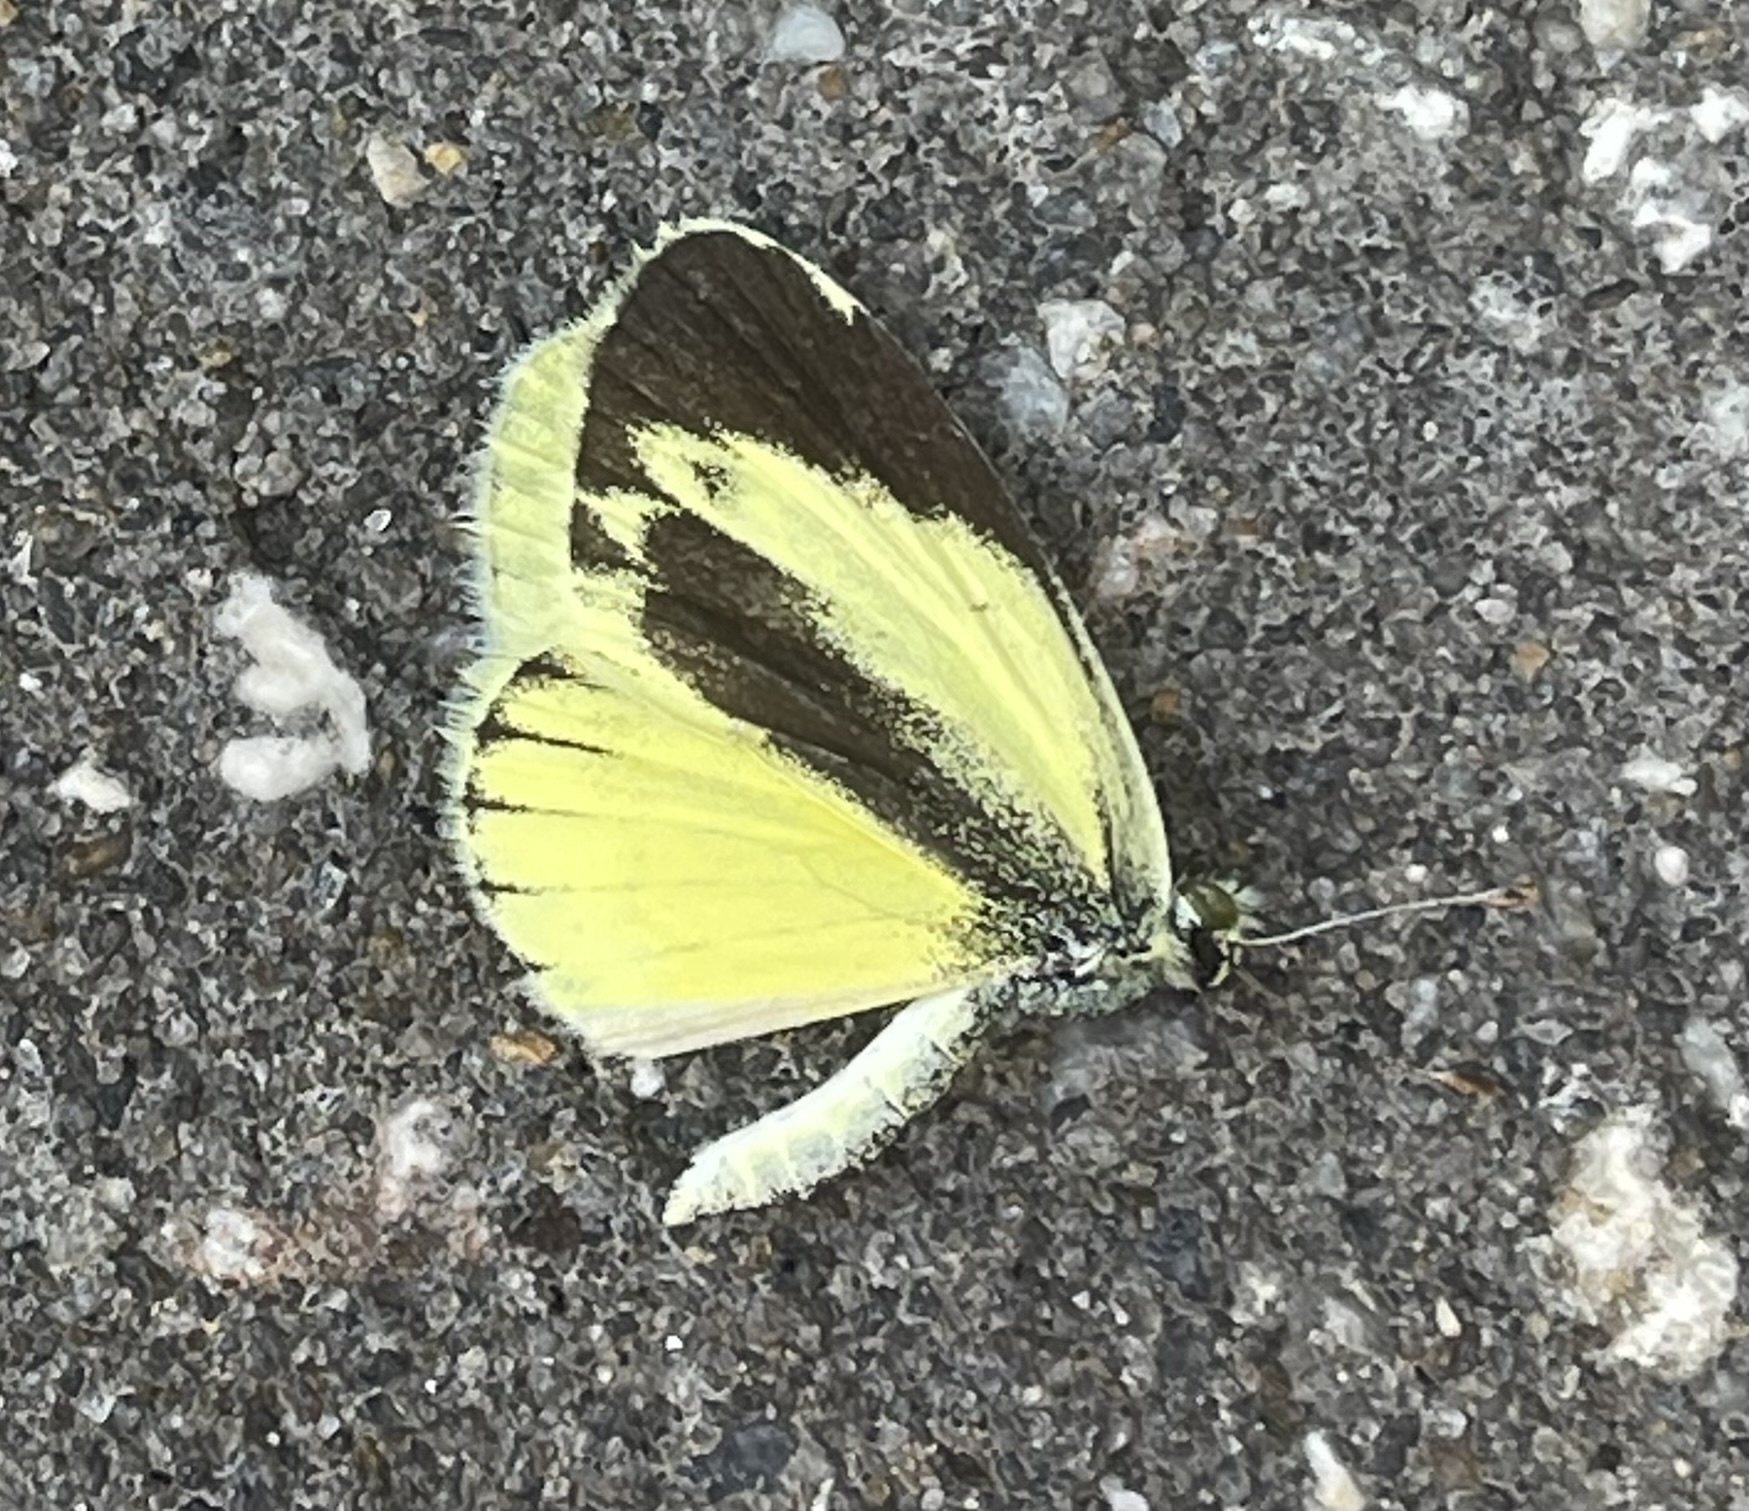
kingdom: Animalia
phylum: Arthropoda
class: Insecta
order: Lepidoptera
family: Pieridae
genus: Nathalis
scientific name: Nathalis iole
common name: Dainty sulphur
